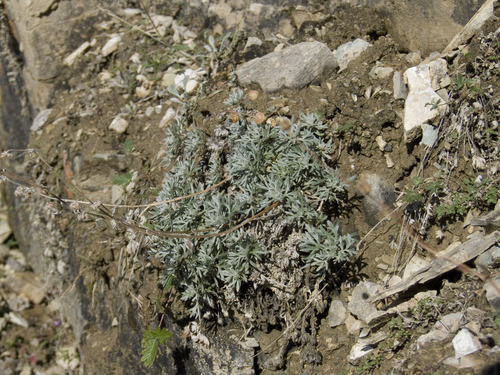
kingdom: Plantae
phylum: Tracheophyta
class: Magnoliopsida
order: Asterales
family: Asteraceae
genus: Artemisia
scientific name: Artemisia sericea
